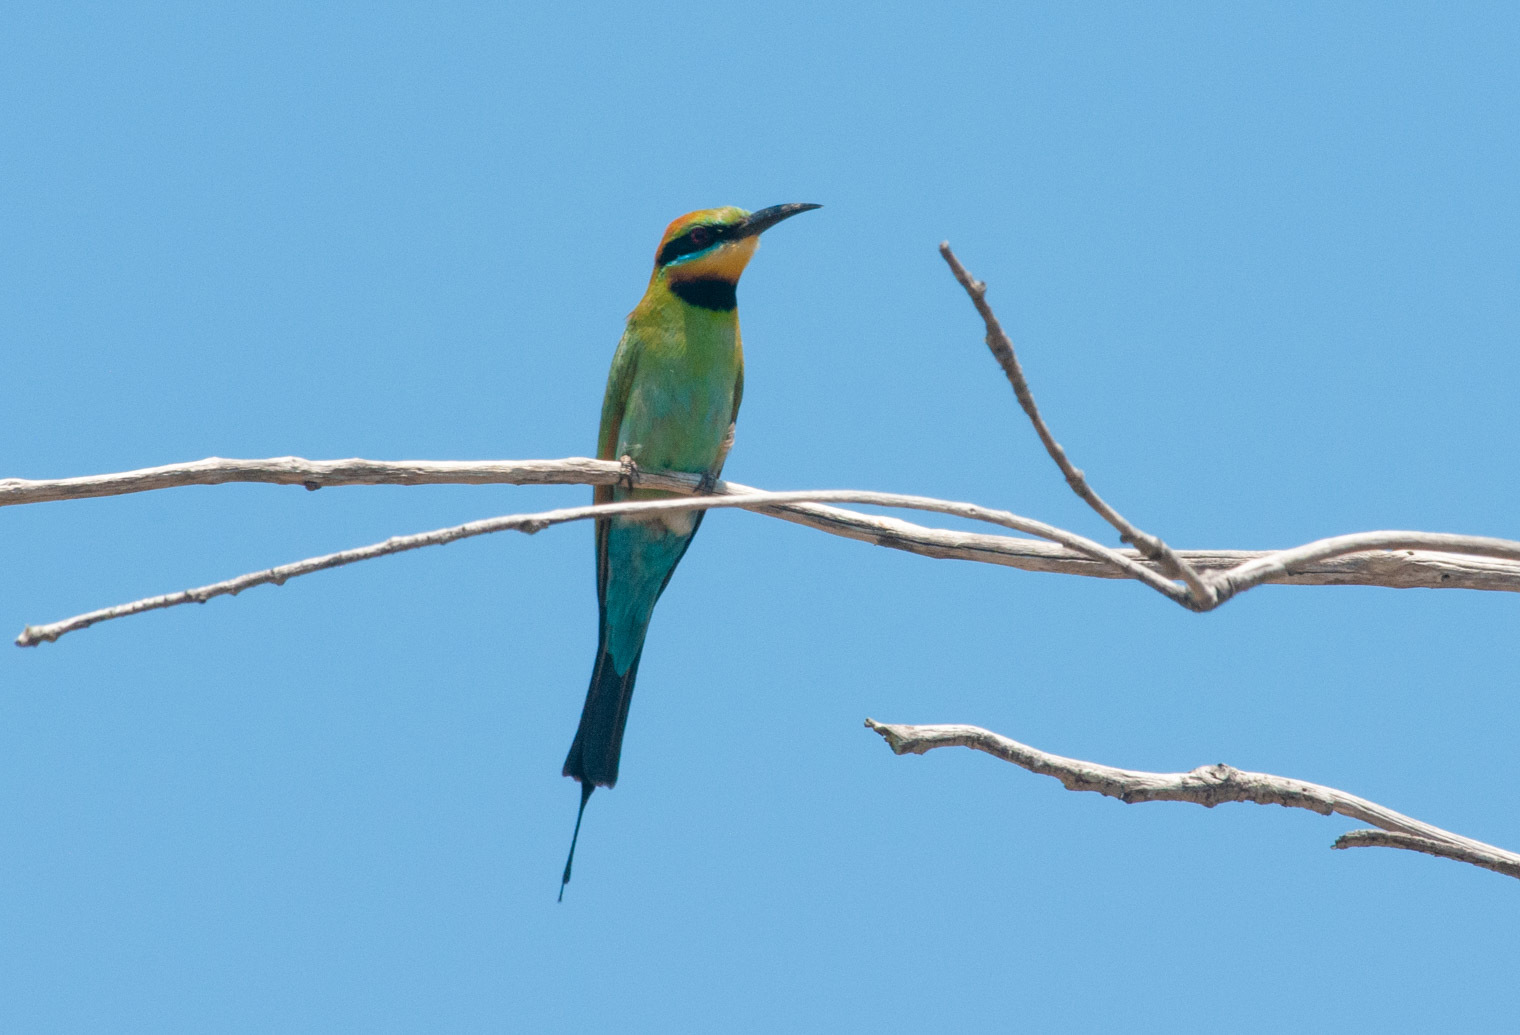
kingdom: Animalia
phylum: Chordata
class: Aves
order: Coraciiformes
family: Meropidae
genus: Merops
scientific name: Merops ornatus
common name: Rainbow bee-eater
